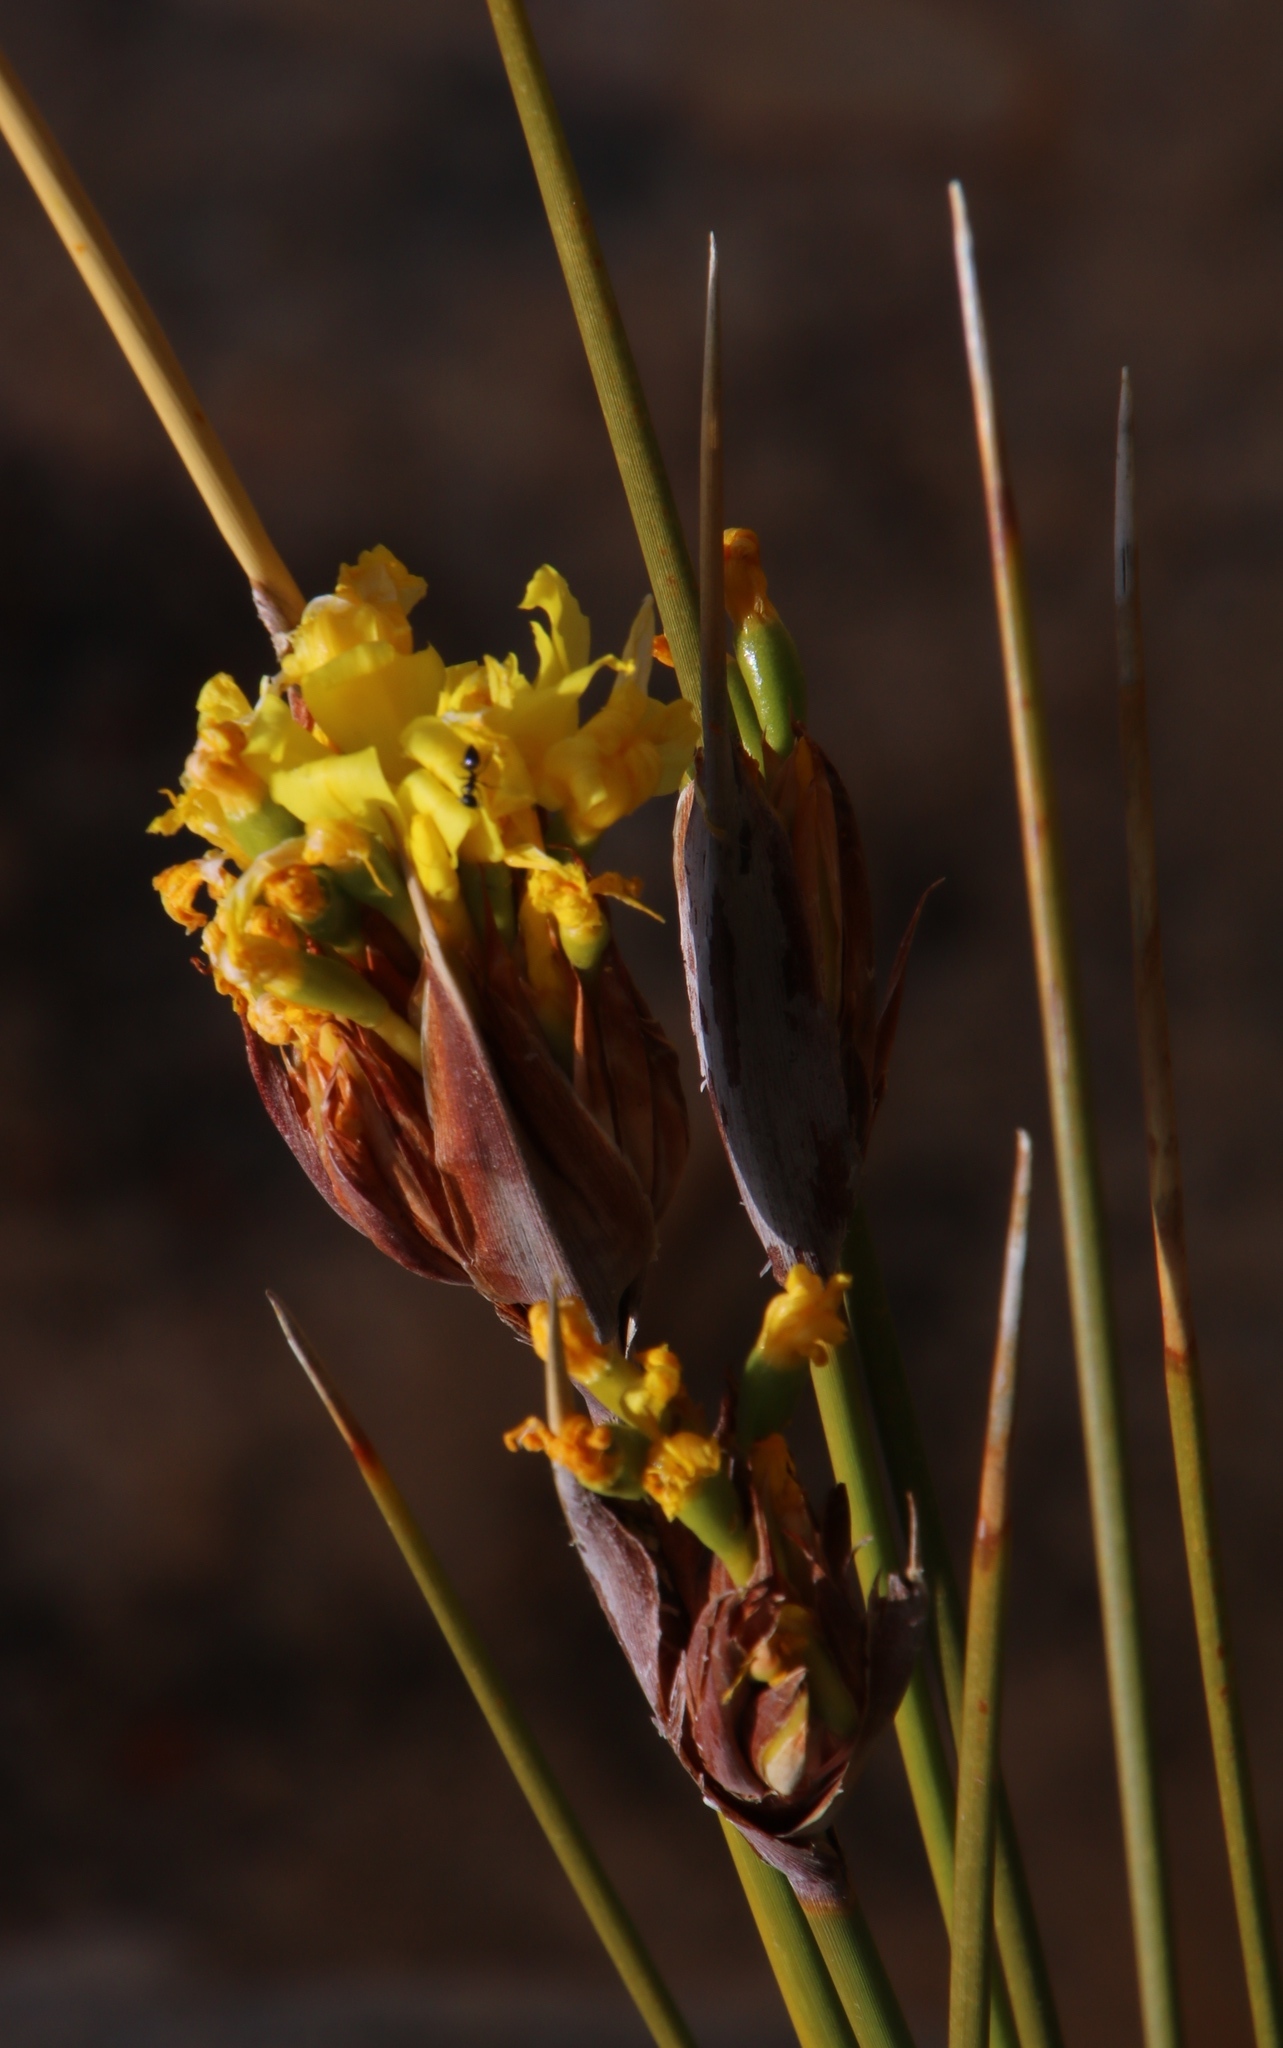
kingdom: Plantae
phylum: Tracheophyta
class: Liliopsida
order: Asparagales
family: Iridaceae
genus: Bobartia
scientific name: Bobartia rufa
